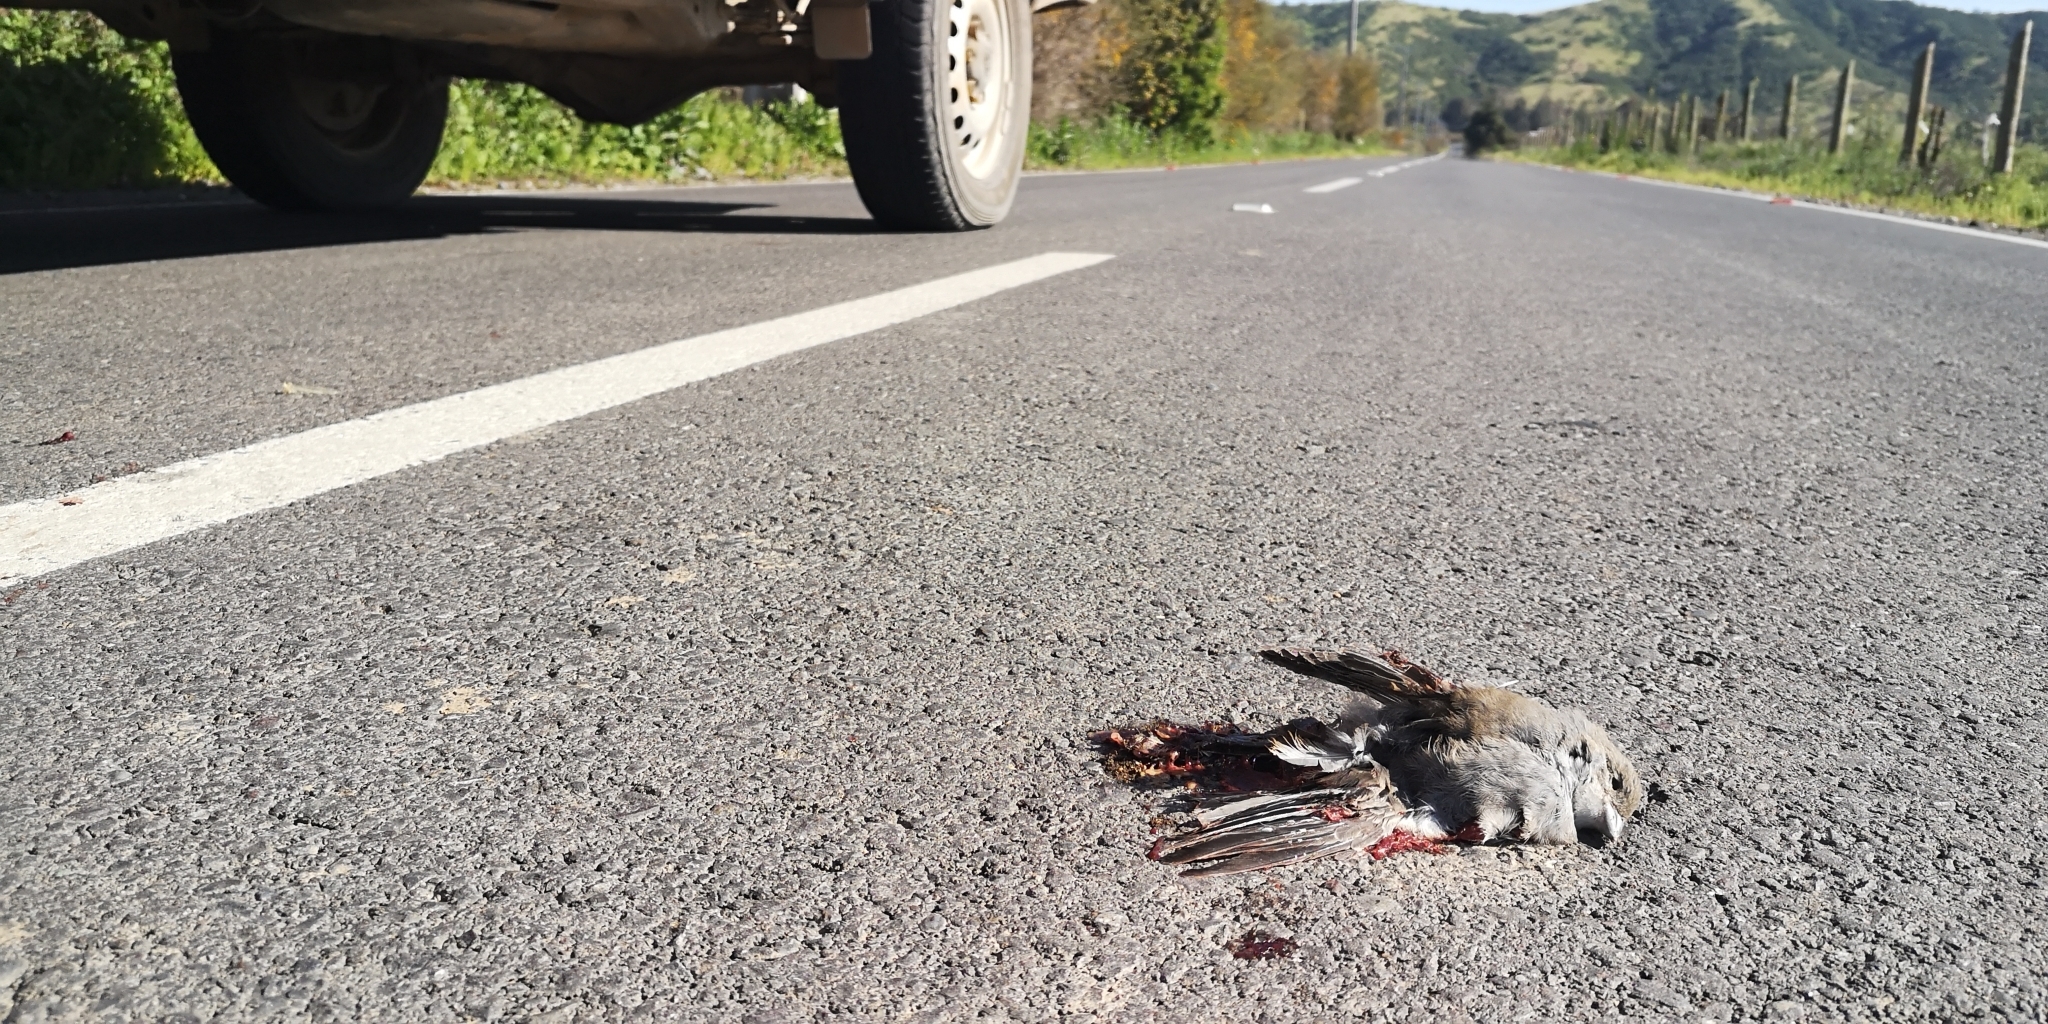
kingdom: Animalia
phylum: Chordata
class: Aves
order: Passeriformes
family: Thraupidae
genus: Diuca
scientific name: Diuca diuca
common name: Common diuca finch
